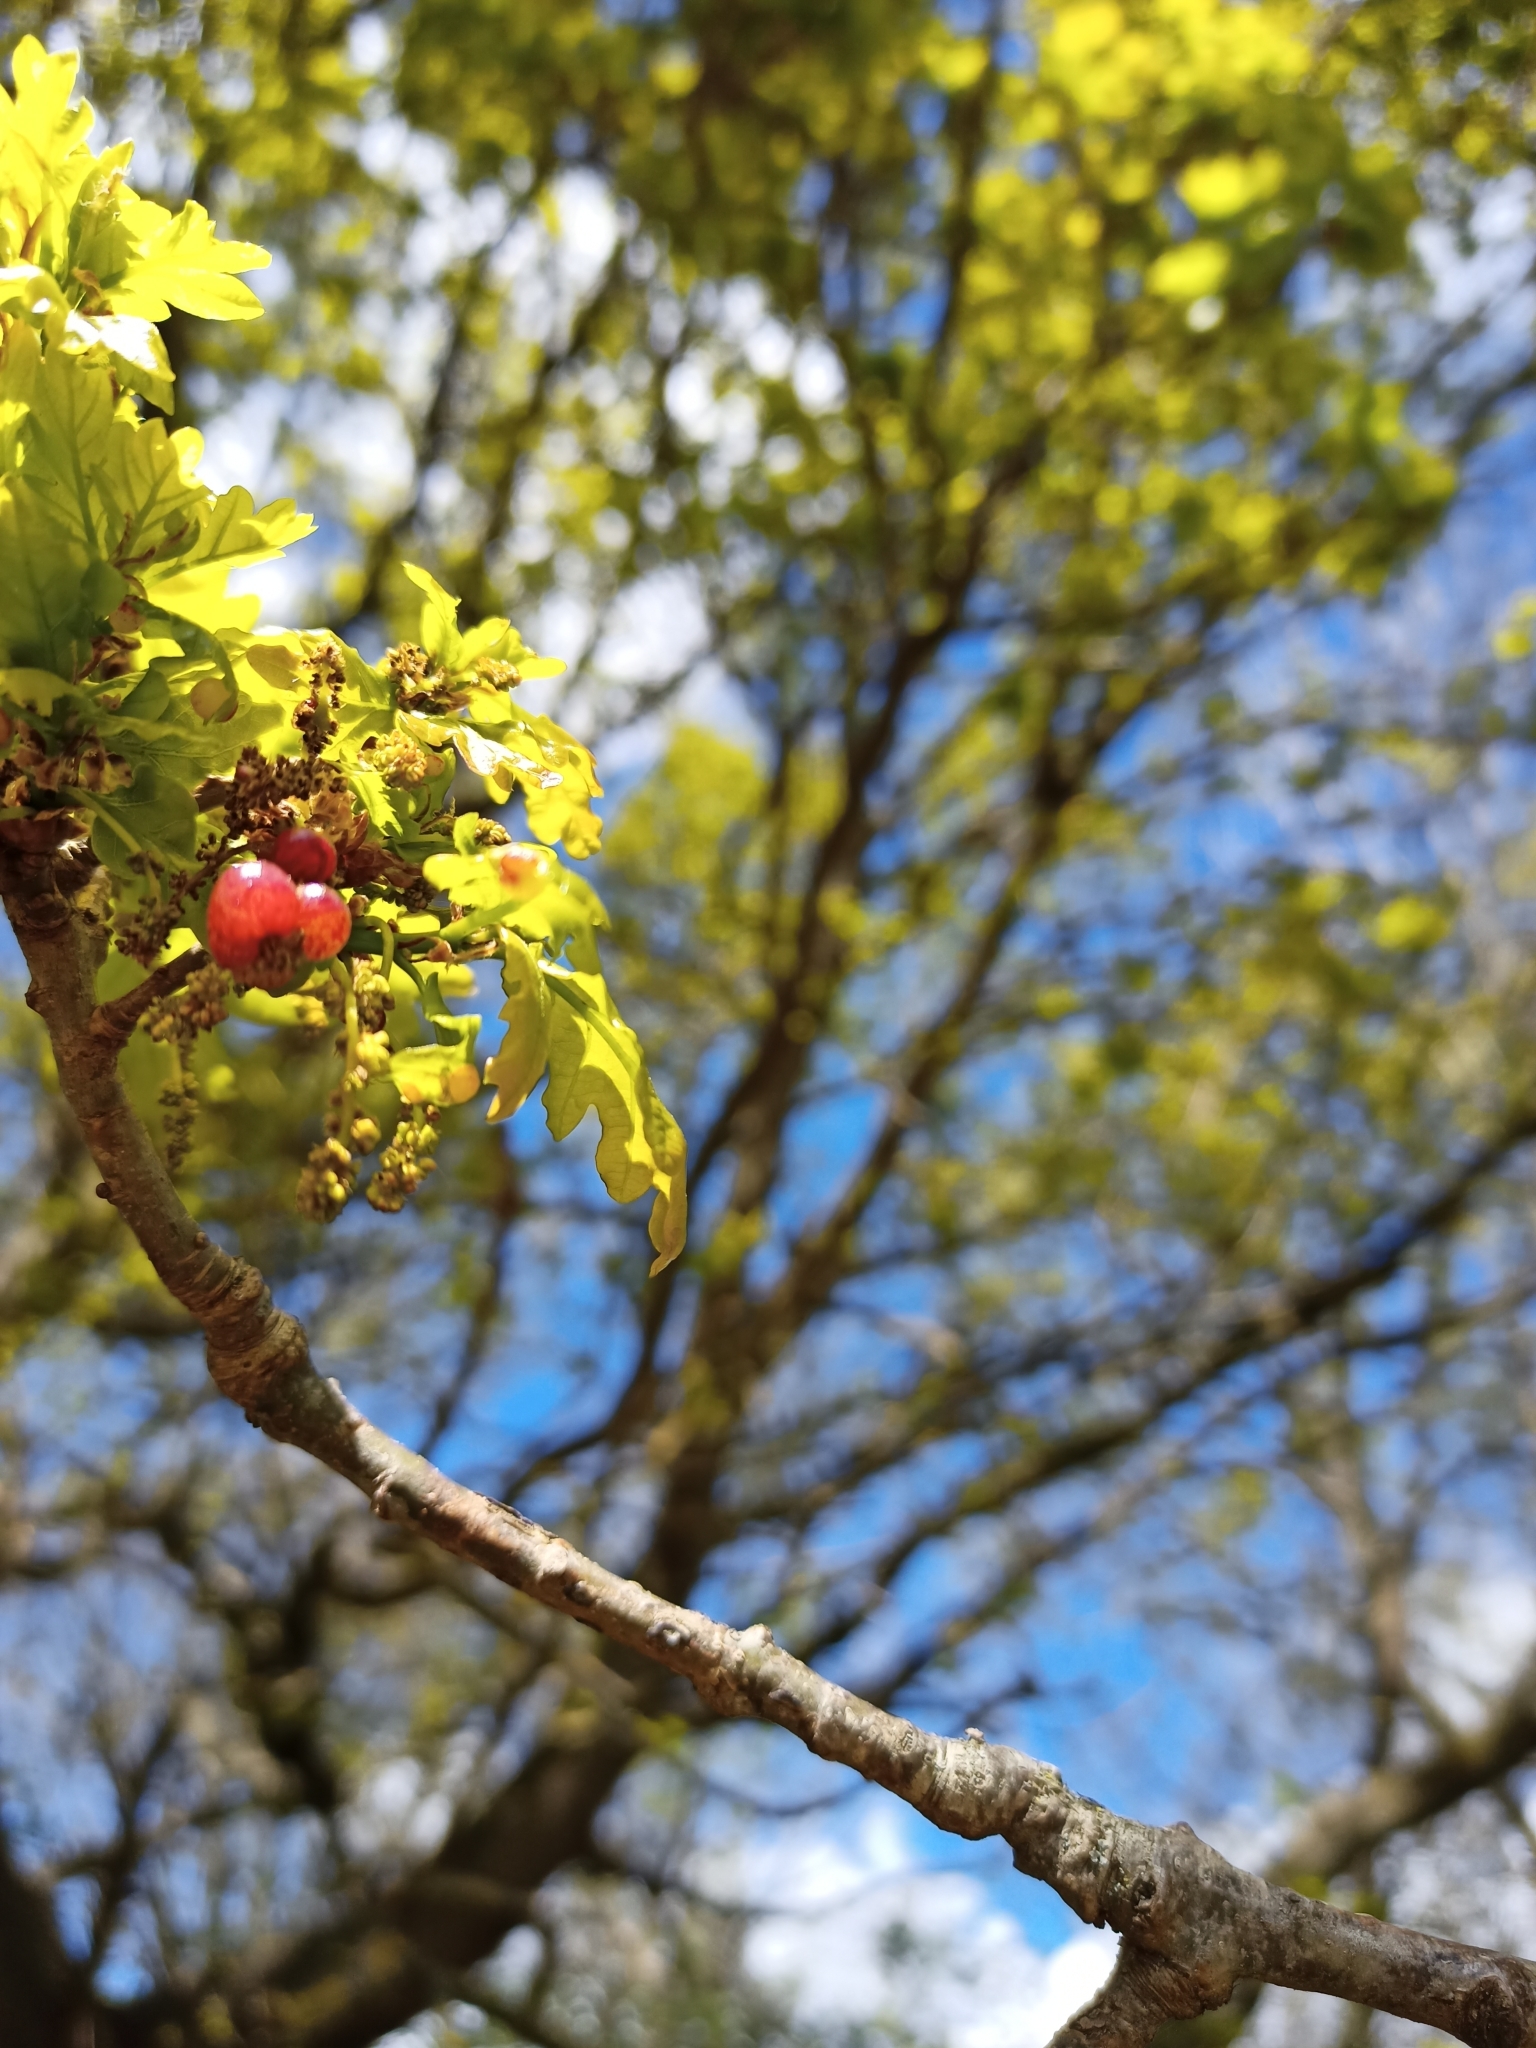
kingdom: Animalia
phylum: Arthropoda
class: Insecta
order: Hymenoptera
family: Cynipidae
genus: Neuroterus
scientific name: Neuroterus quercusbaccarum
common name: Common spangle gall
